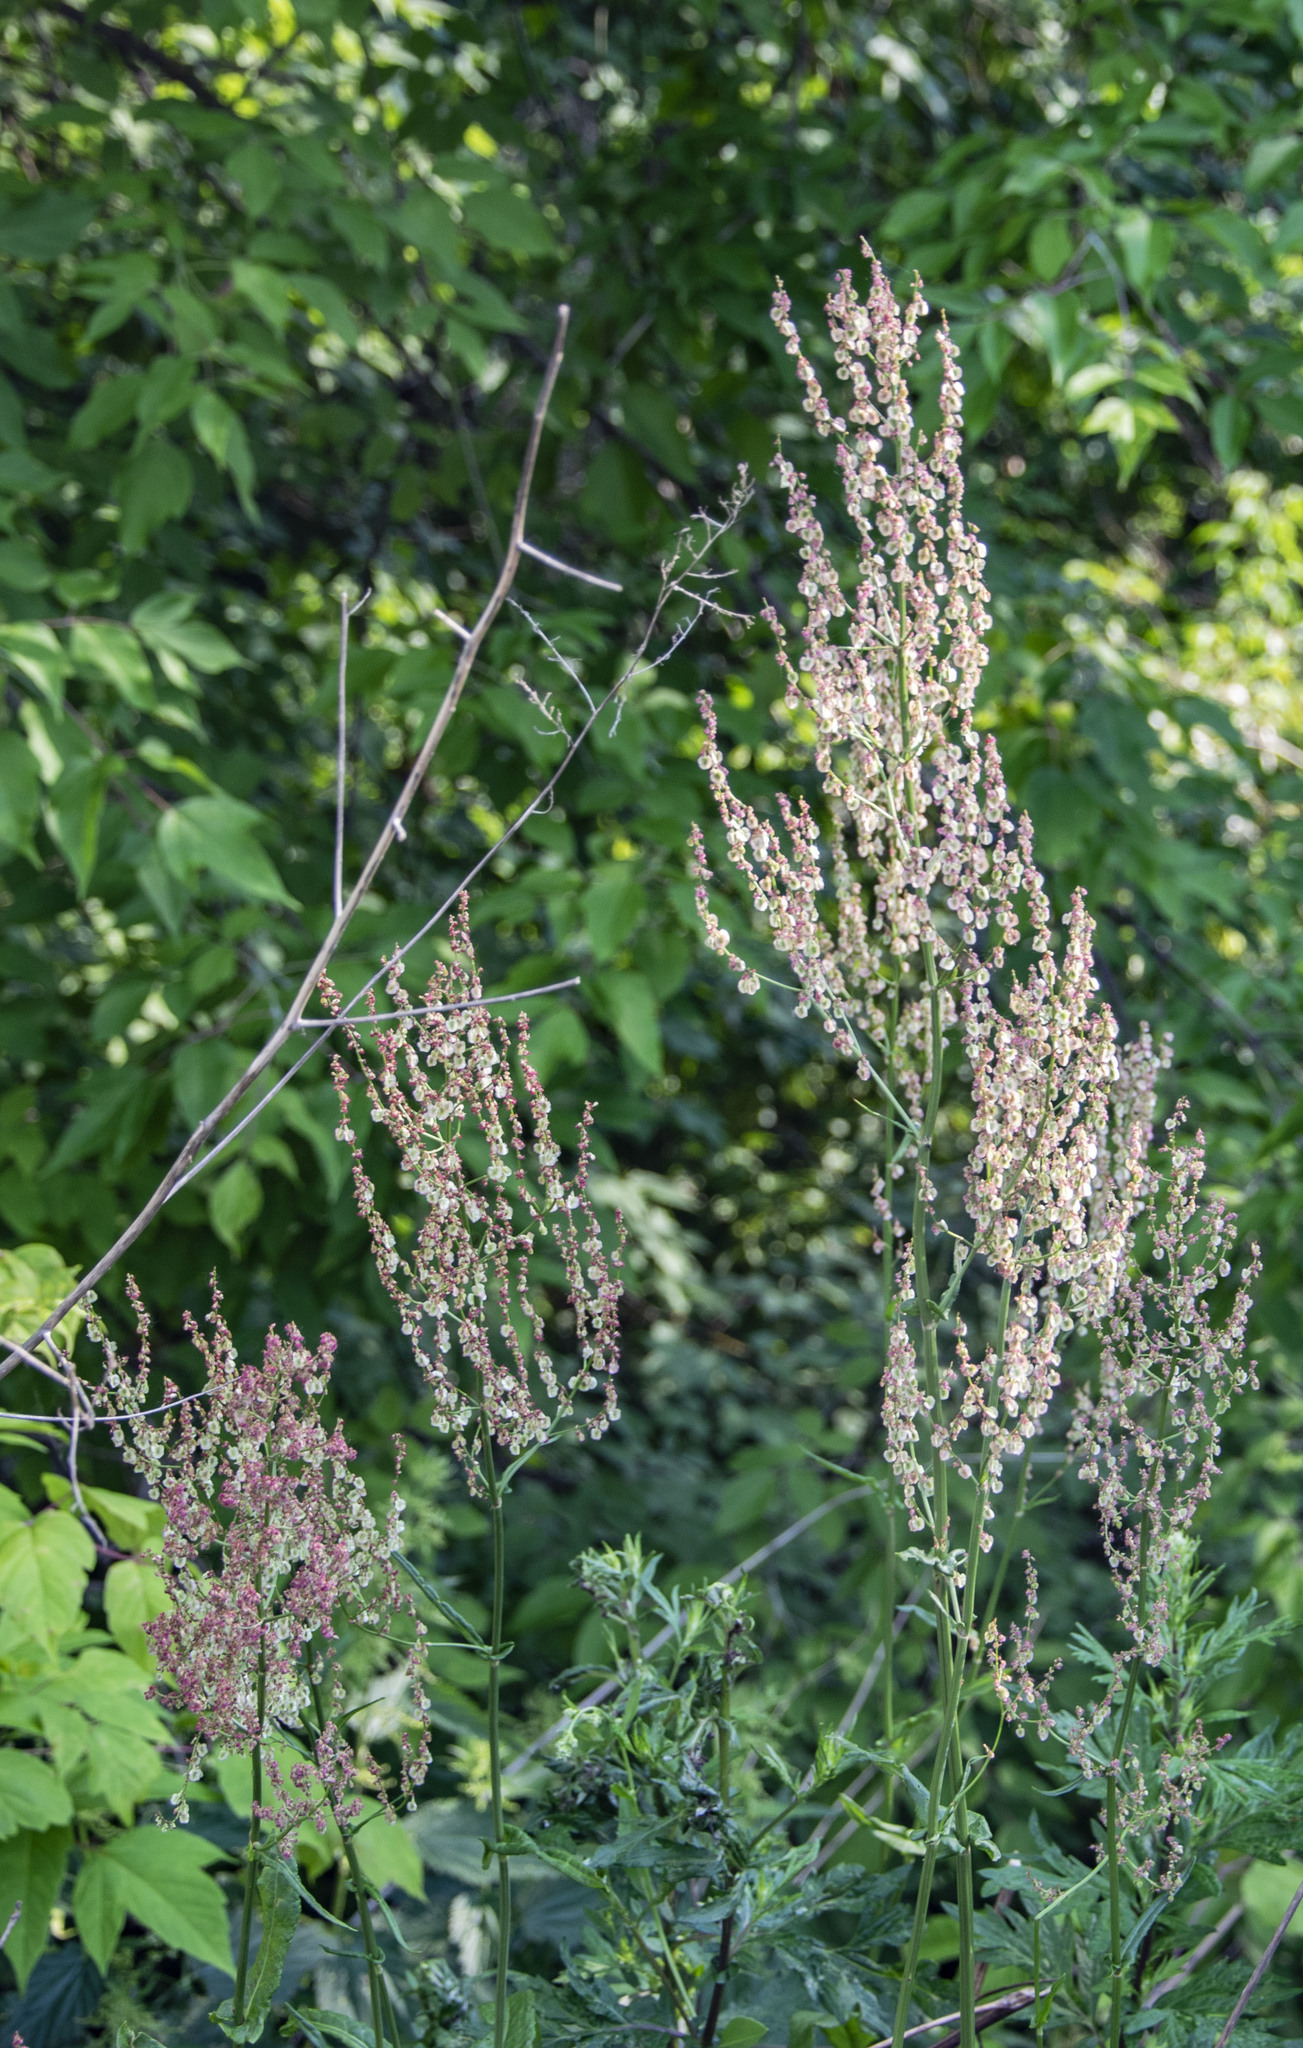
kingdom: Plantae
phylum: Tracheophyta
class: Magnoliopsida
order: Caryophyllales
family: Polygonaceae
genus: Rumex
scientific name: Rumex thyrsiflorus
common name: Garden sorrel
